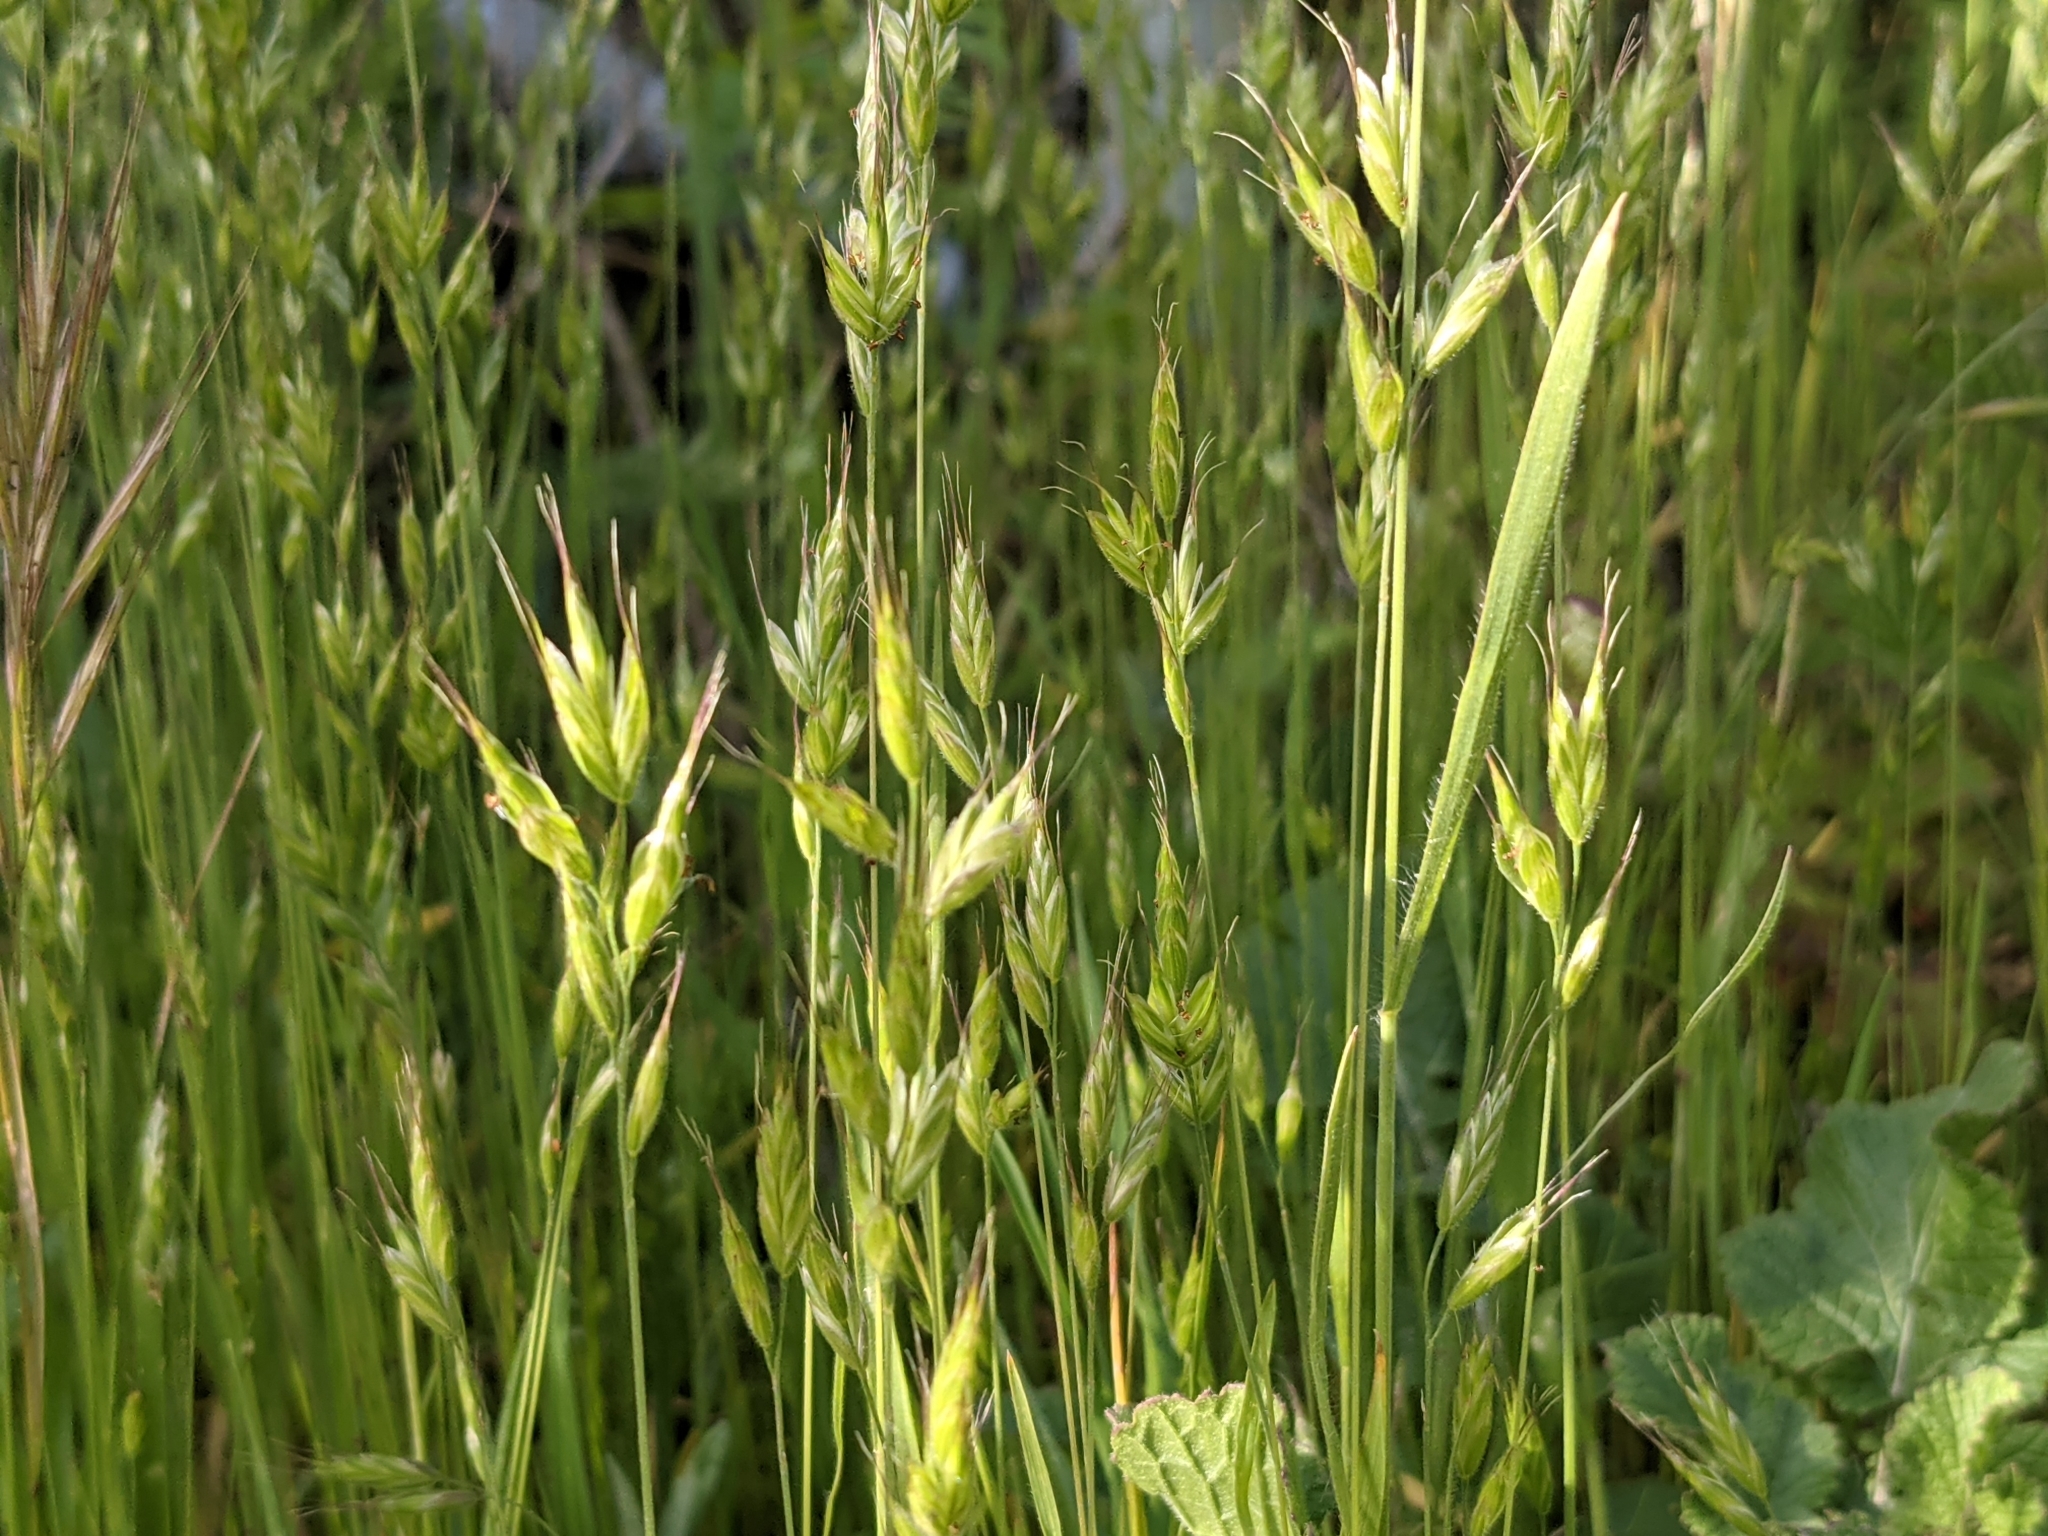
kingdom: Plantae
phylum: Tracheophyta
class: Liliopsida
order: Poales
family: Poaceae
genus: Bromus
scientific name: Bromus hordeaceus
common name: Soft brome
